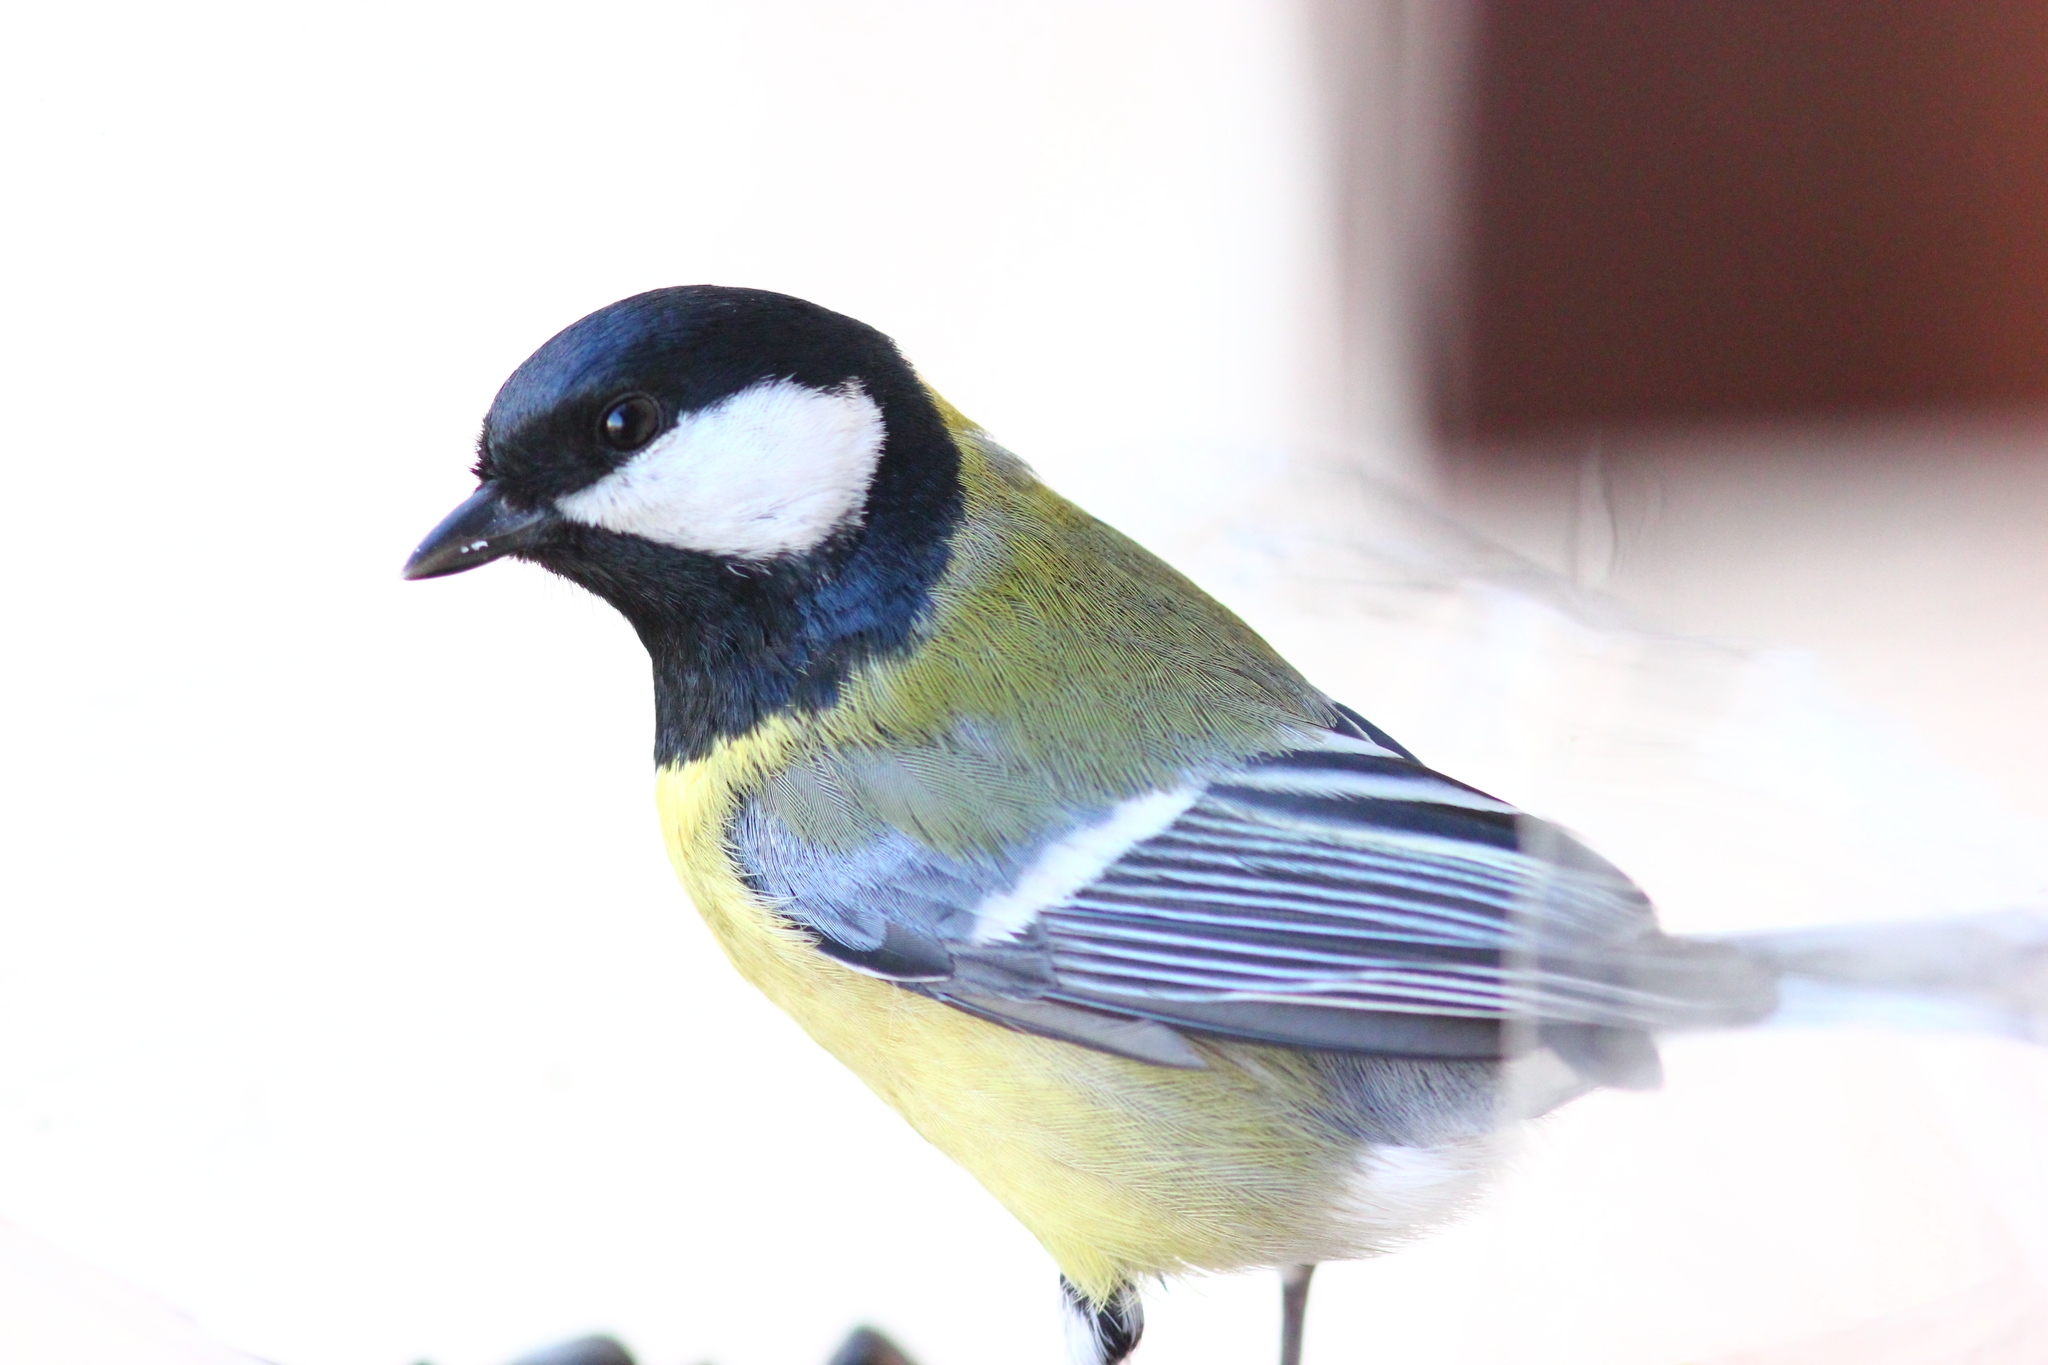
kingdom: Animalia
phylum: Chordata
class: Aves
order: Passeriformes
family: Paridae
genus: Parus
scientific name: Parus major
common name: Great tit
